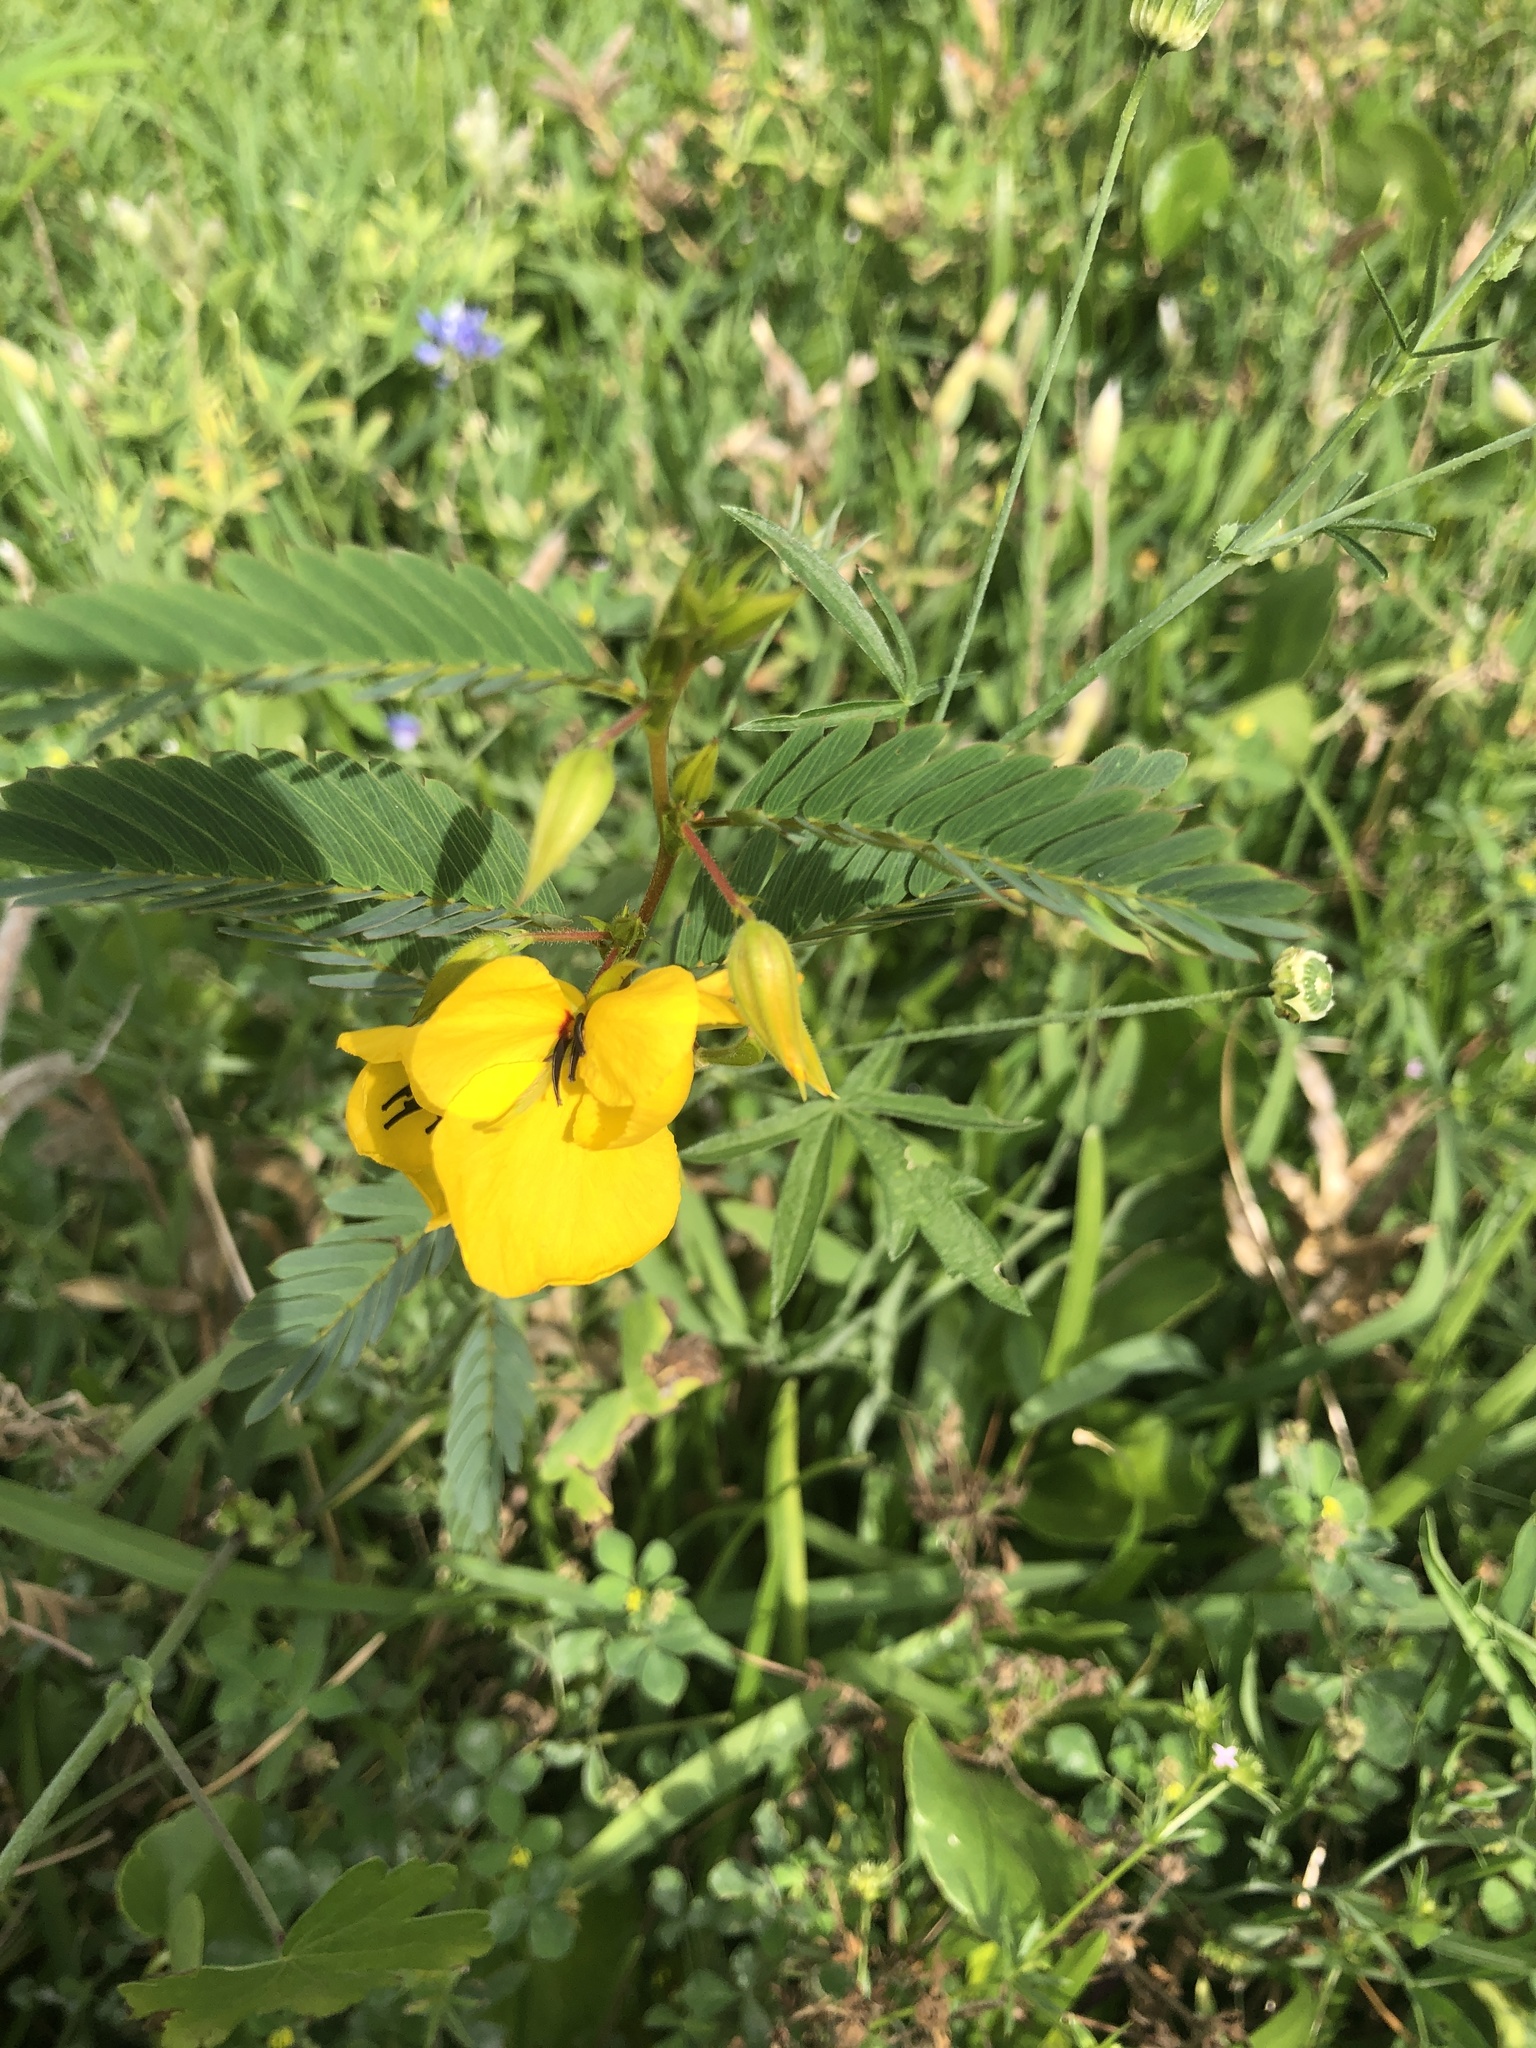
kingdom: Plantae
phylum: Tracheophyta
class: Magnoliopsida
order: Fabales
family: Fabaceae
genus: Chamaecrista
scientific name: Chamaecrista fasciculata
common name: Golden cassia
